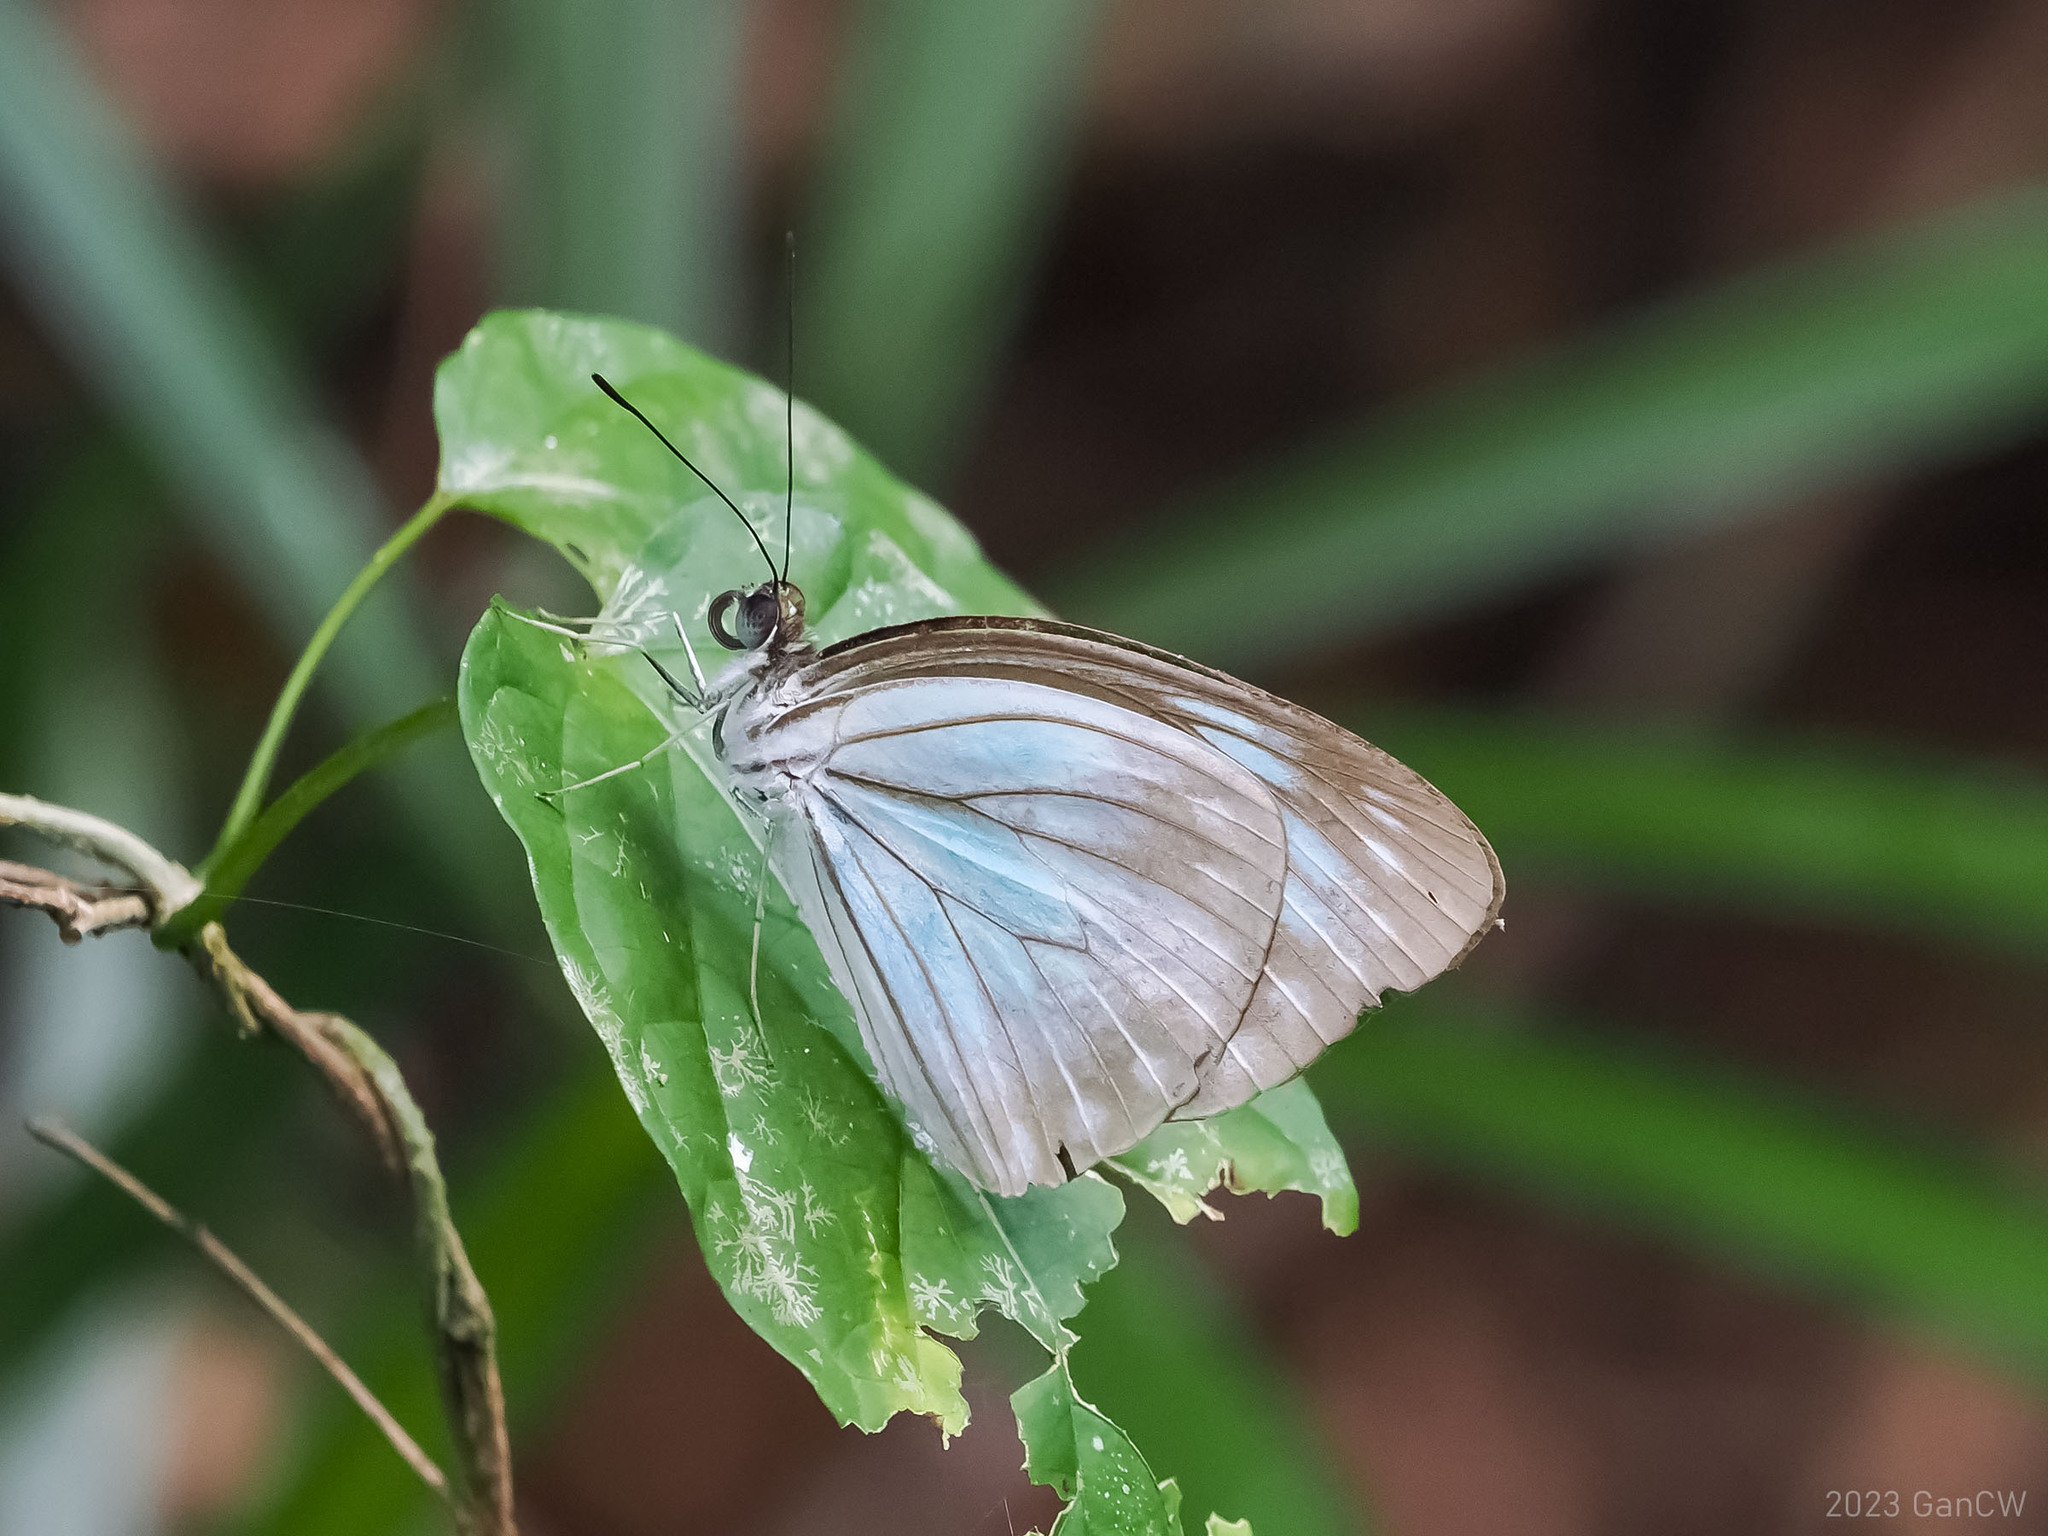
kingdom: Animalia
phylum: Arthropoda
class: Insecta
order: Lepidoptera
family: Pieridae
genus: Pareronia
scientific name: Pareronia boebera
